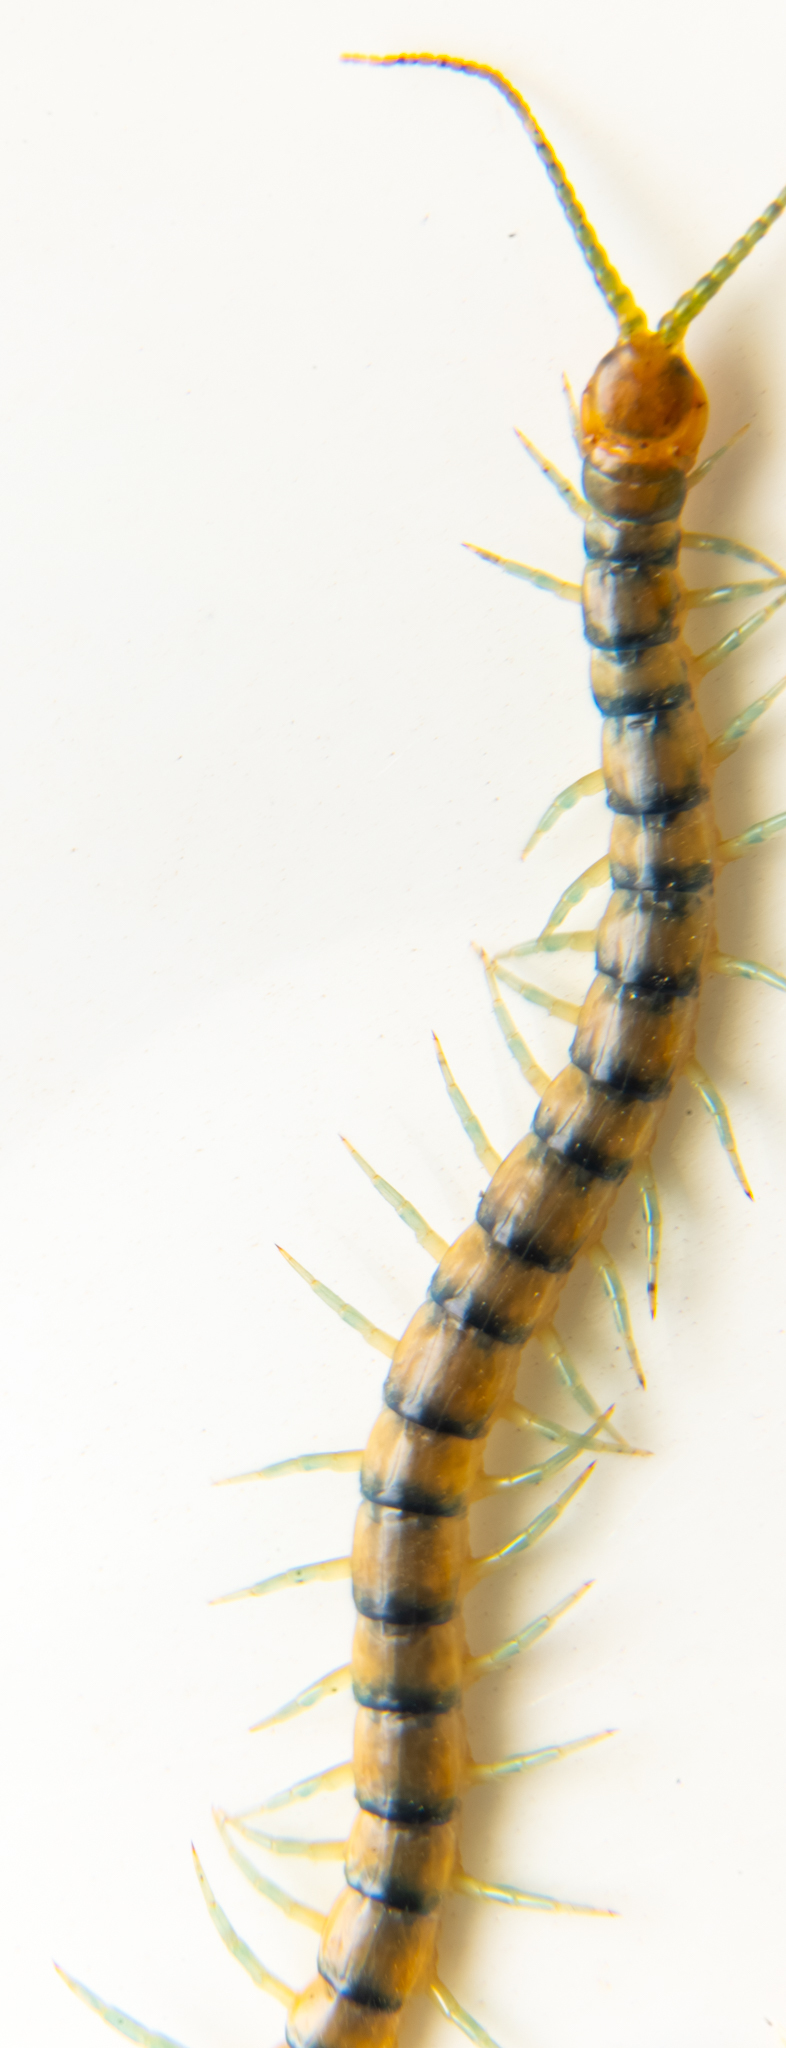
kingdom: Animalia
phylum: Arthropoda
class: Chilopoda
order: Scolopendromorpha
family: Scolopendridae
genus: Scolopendra
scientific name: Scolopendra polymorpha
